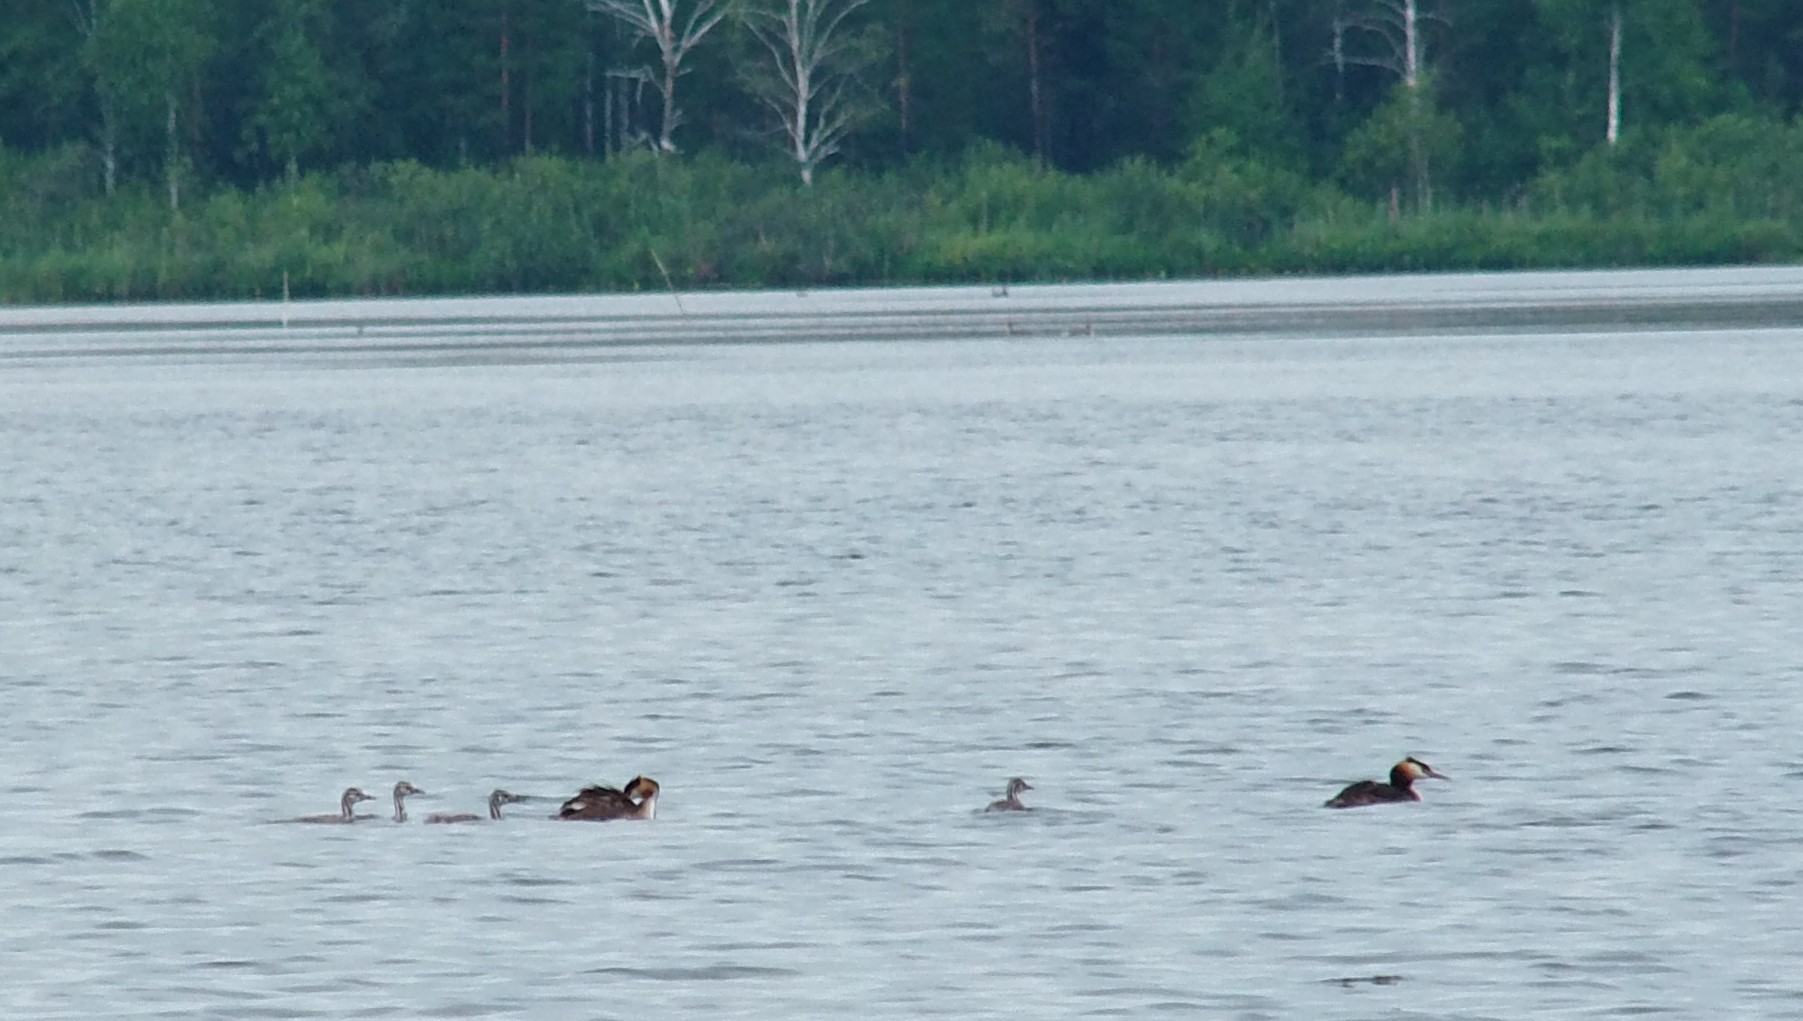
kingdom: Animalia
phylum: Chordata
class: Aves
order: Podicipediformes
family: Podicipedidae
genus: Podiceps
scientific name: Podiceps cristatus
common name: Great crested grebe
